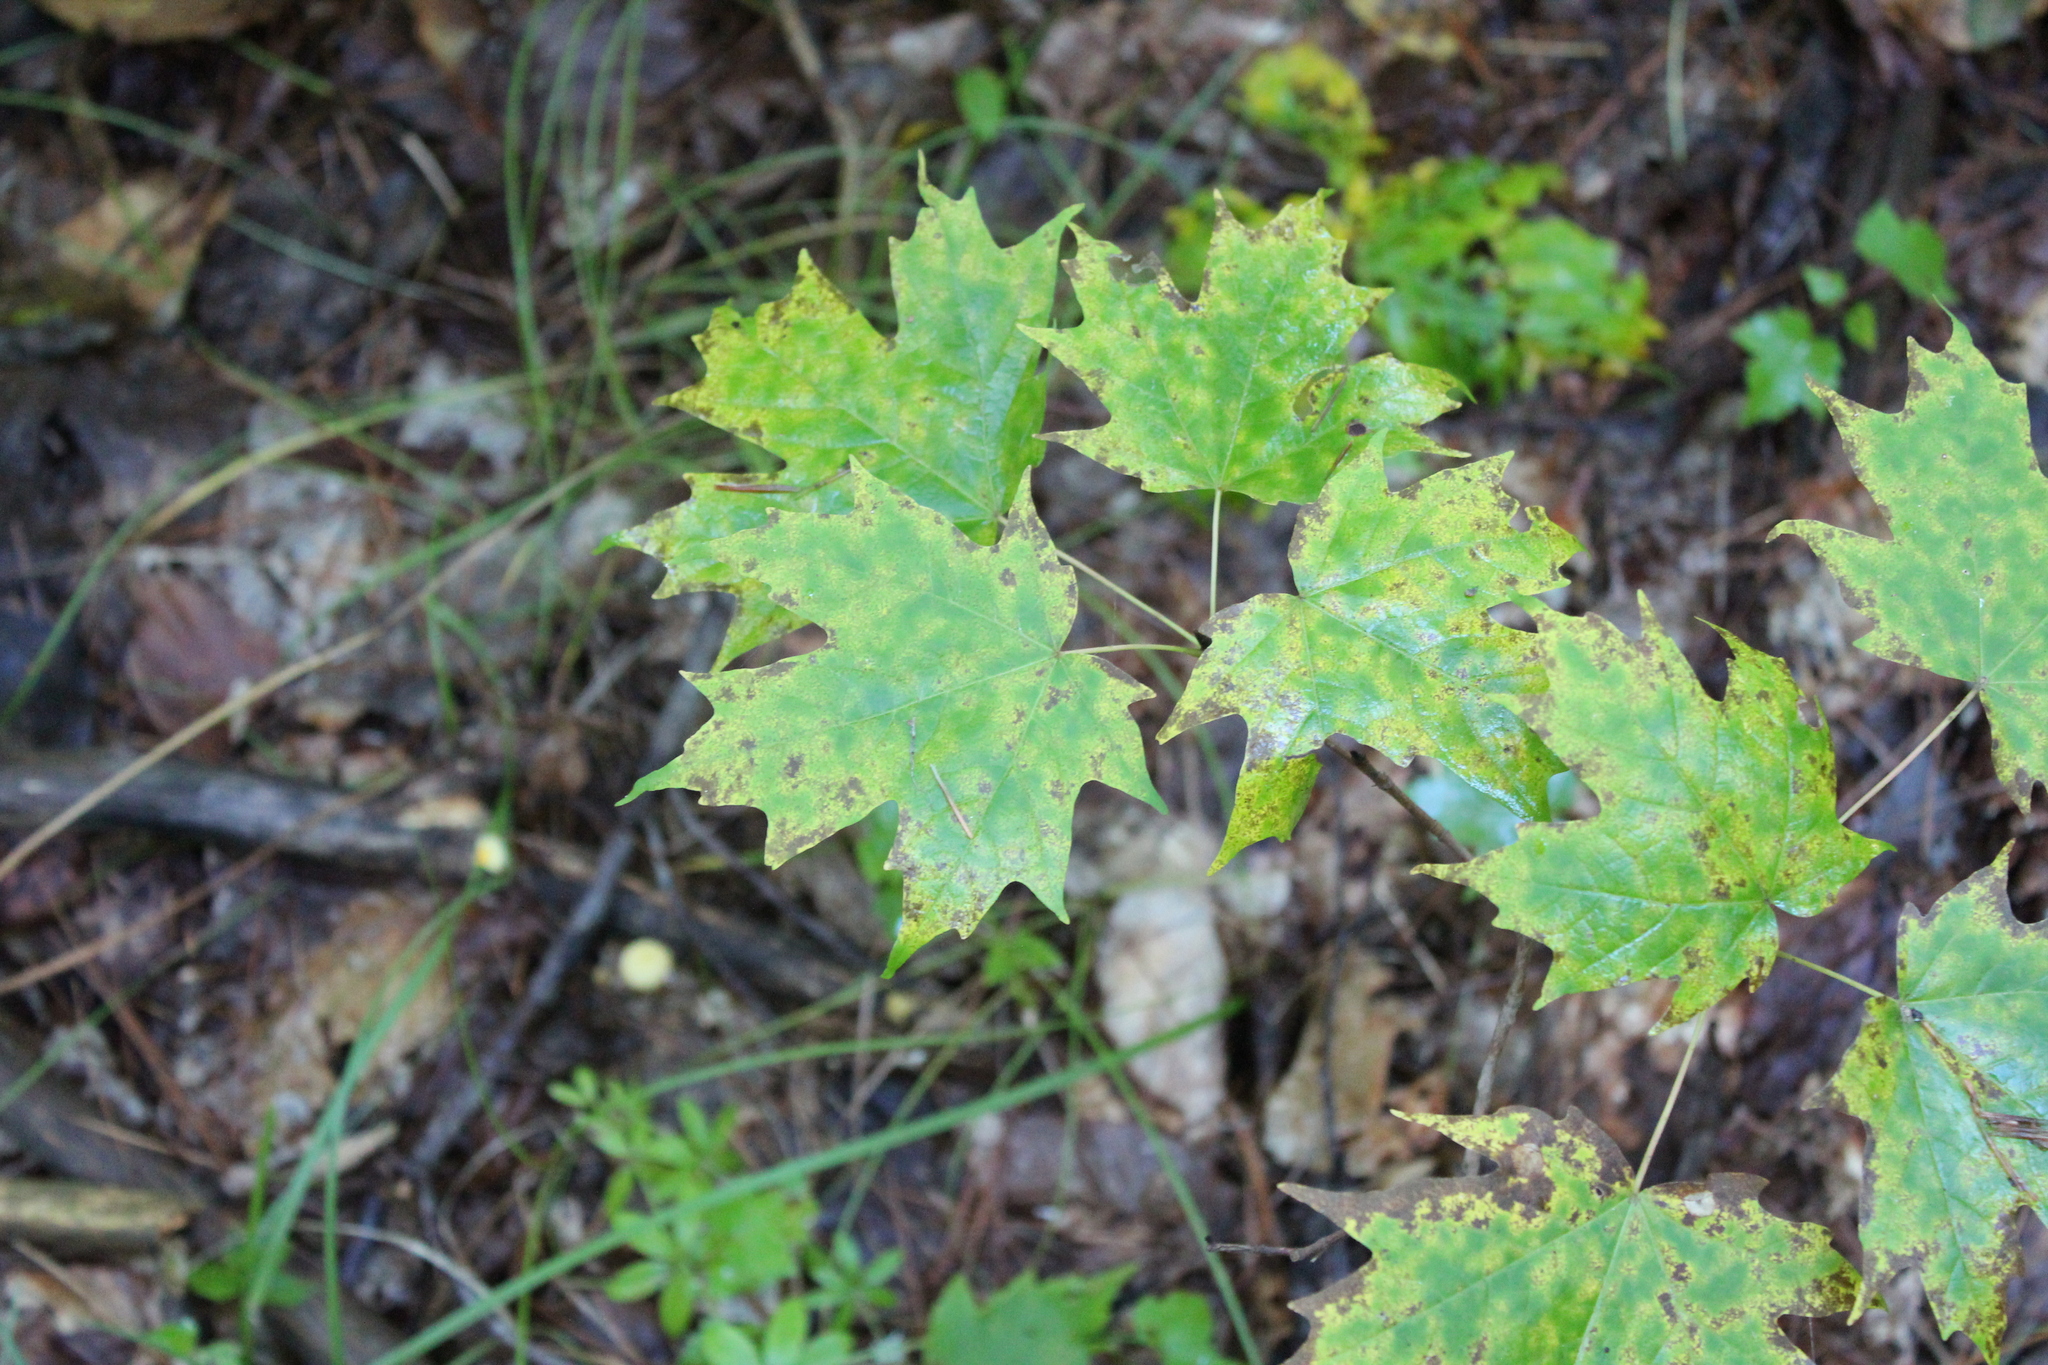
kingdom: Plantae
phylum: Tracheophyta
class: Magnoliopsida
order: Sapindales
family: Sapindaceae
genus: Acer
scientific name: Acer saccharum
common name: Sugar maple
